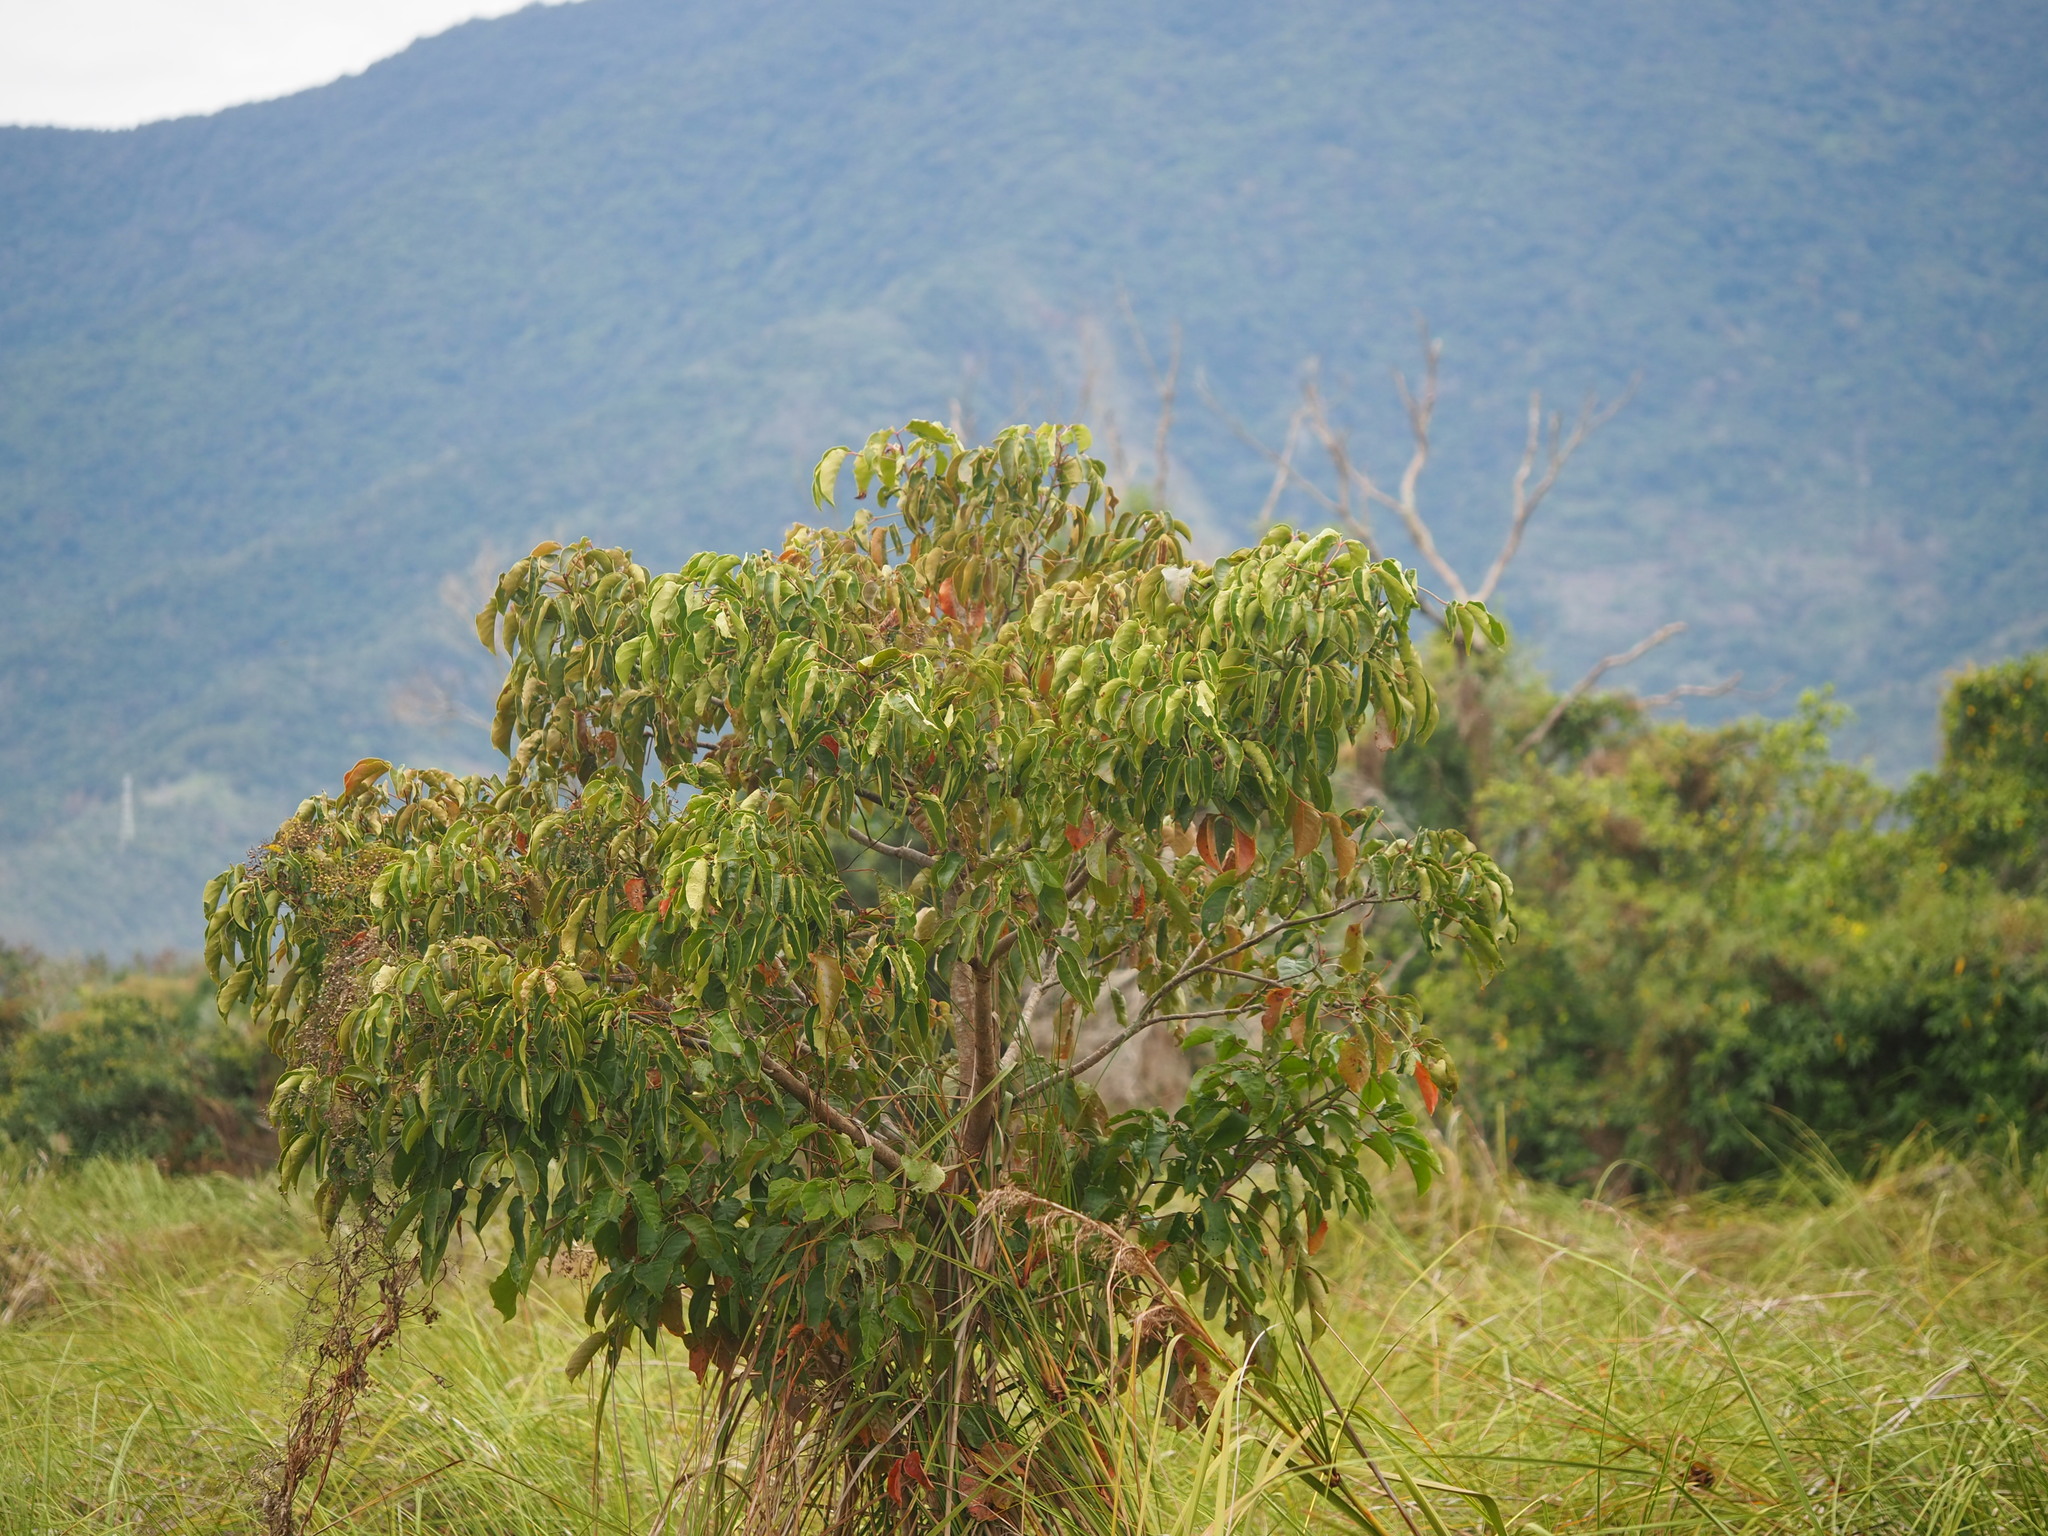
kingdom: Plantae
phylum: Tracheophyta
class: Magnoliopsida
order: Malpighiales
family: Phyllanthaceae
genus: Bischofia
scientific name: Bischofia javanica
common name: Javanese bishopwood
